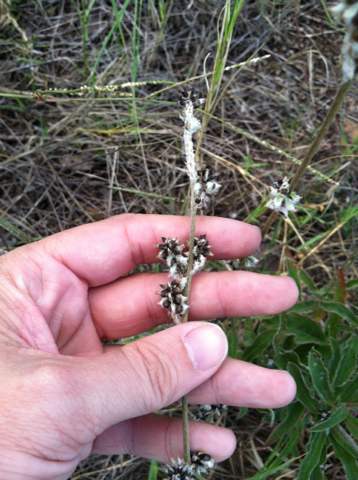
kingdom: Plantae
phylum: Tracheophyta
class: Magnoliopsida
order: Caryophyllales
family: Amaranthaceae
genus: Froelichia
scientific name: Froelichia floridana
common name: Florida snake-cotton
